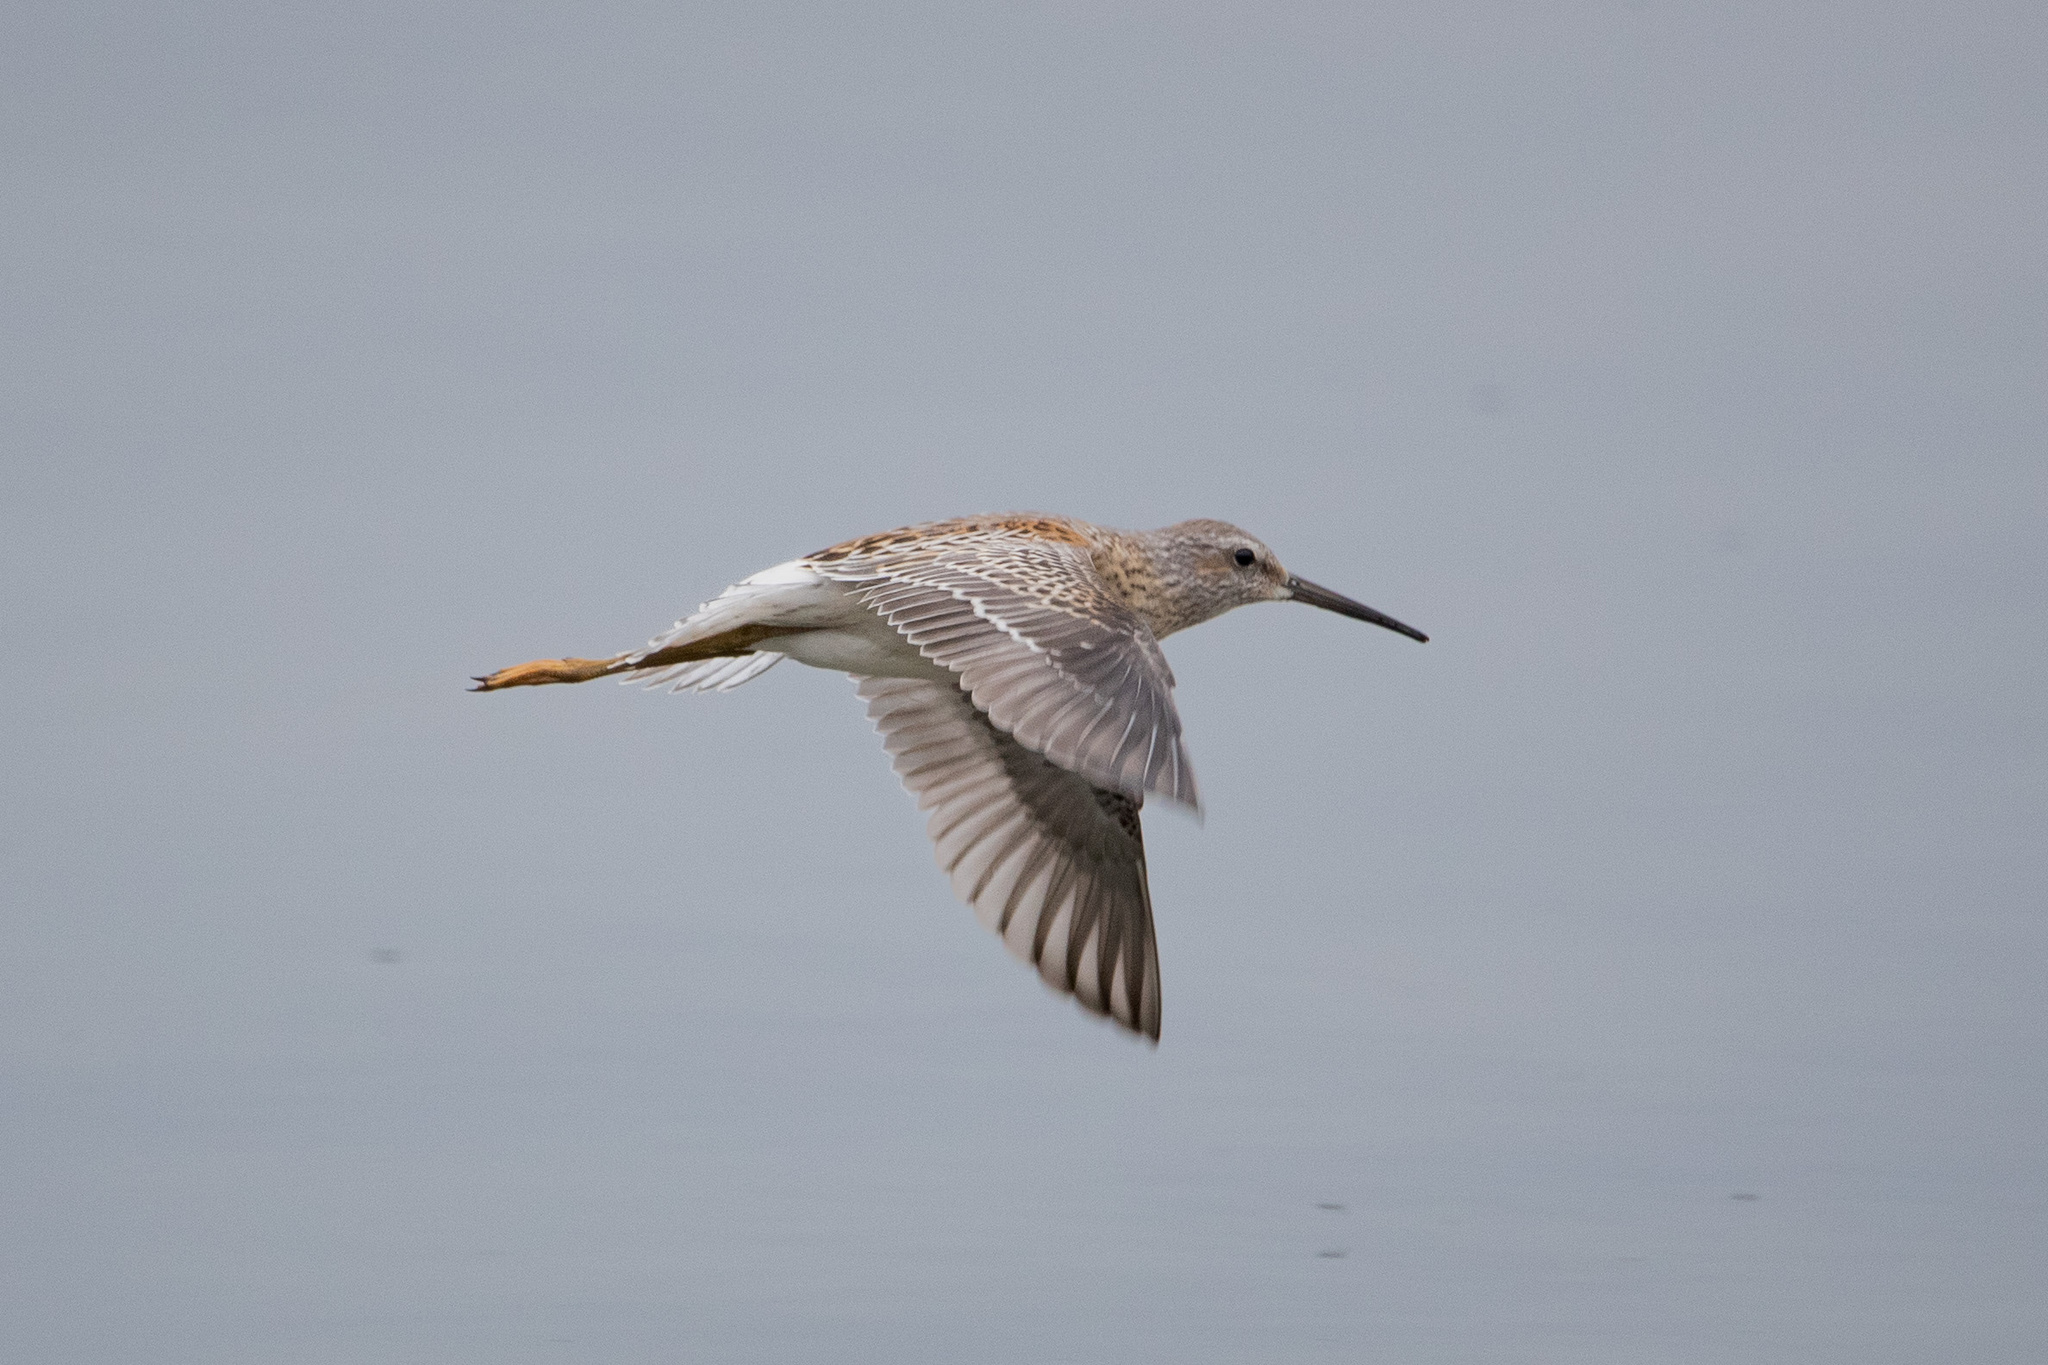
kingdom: Animalia
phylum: Chordata
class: Aves
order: Charadriiformes
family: Scolopacidae
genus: Calidris
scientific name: Calidris himantopus
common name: Stilt sandpiper
